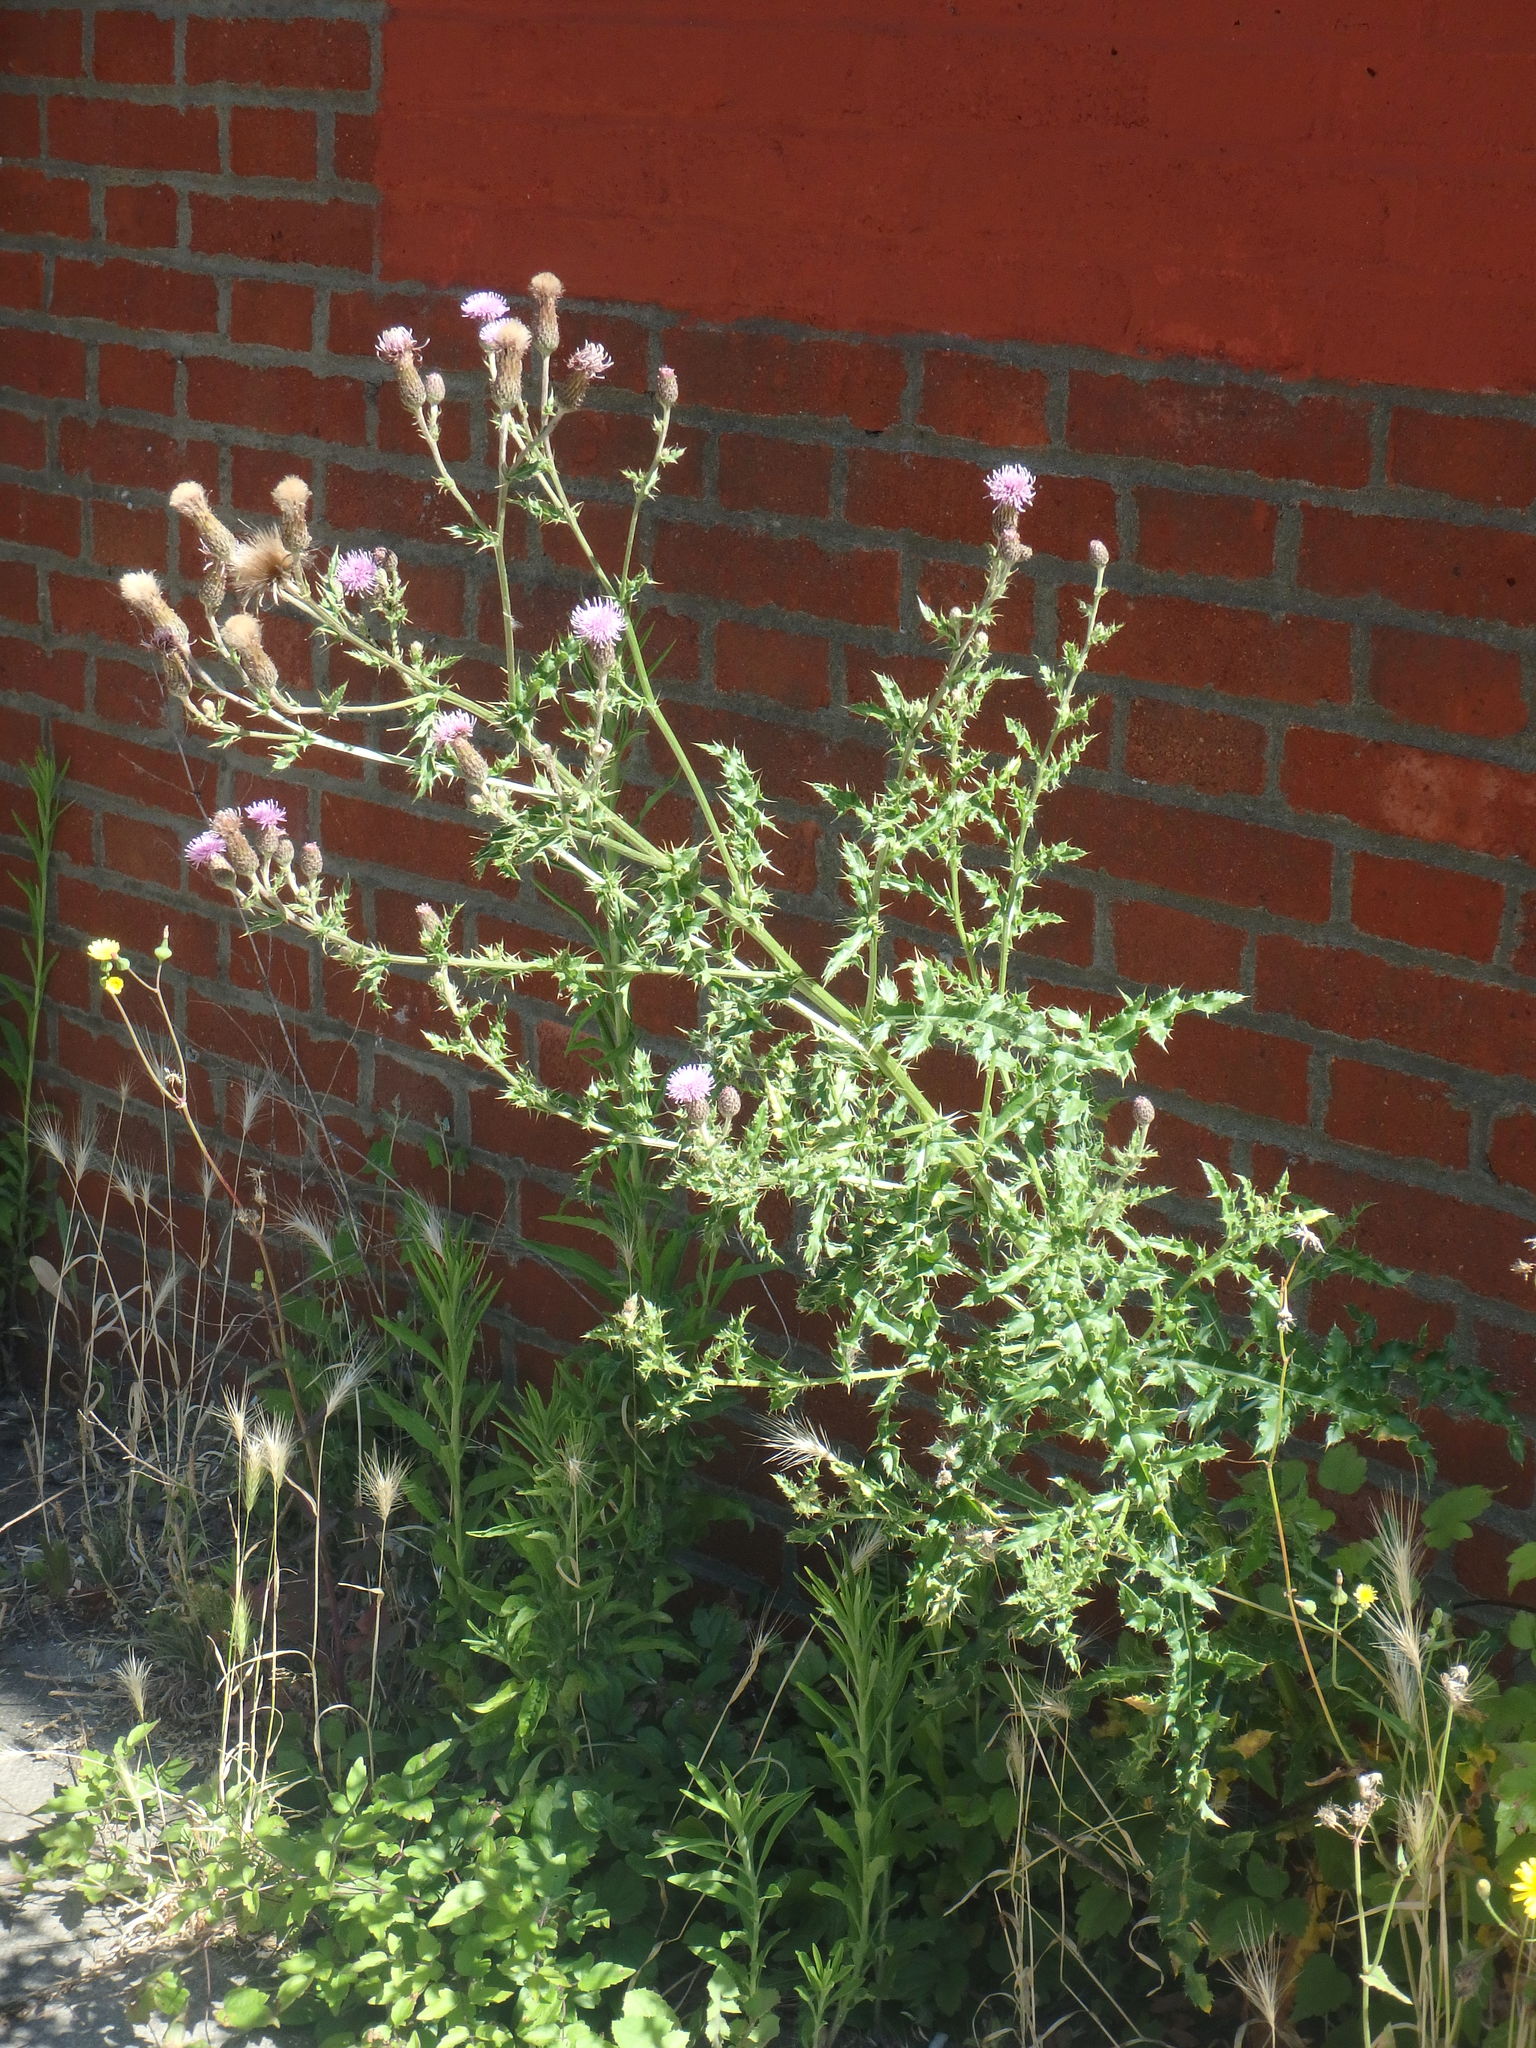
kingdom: Plantae
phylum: Tracheophyta
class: Magnoliopsida
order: Asterales
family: Asteraceae
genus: Cirsium
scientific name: Cirsium arvense
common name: Creeping thistle
